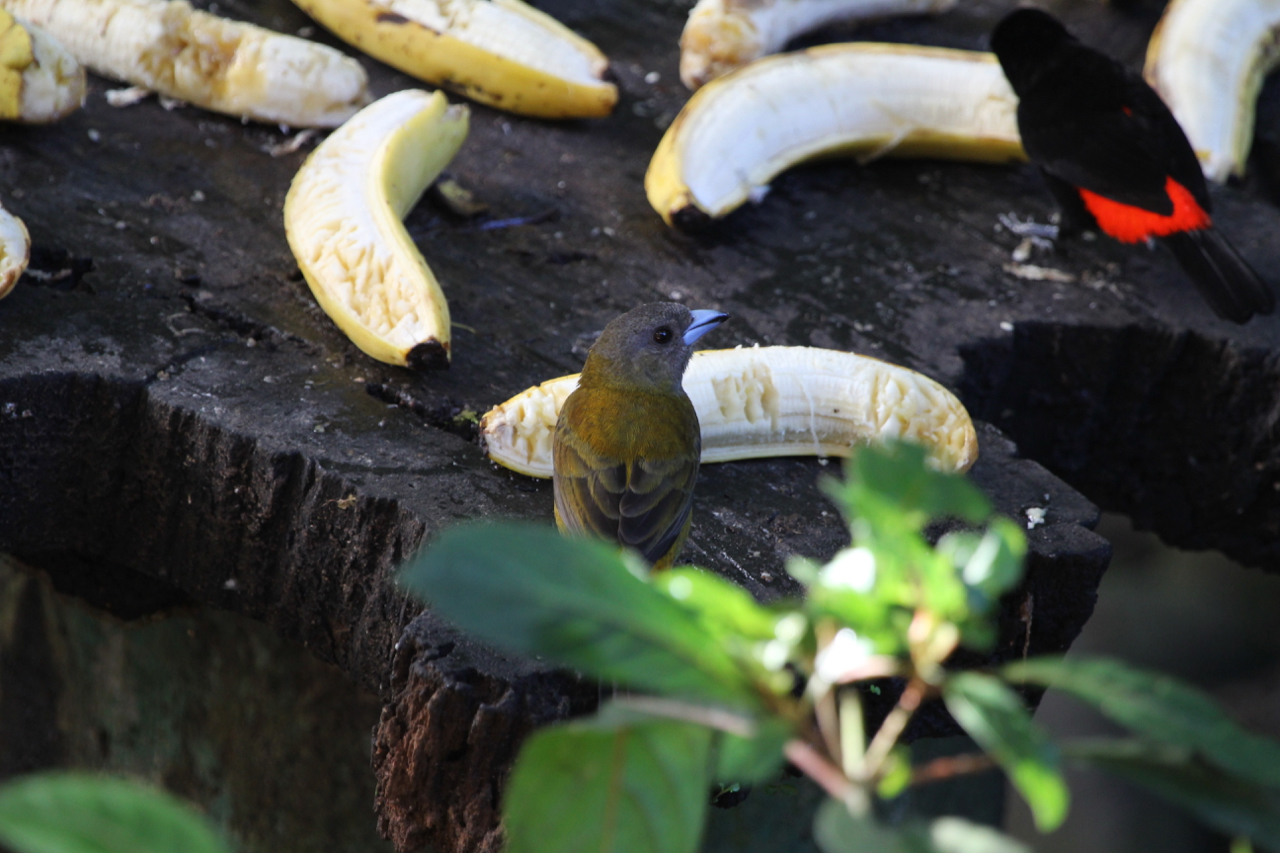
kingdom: Animalia
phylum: Chordata
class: Aves
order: Passeriformes
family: Thraupidae
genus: Ramphocelus
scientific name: Ramphocelus passerinii
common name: Passerini's tanager
